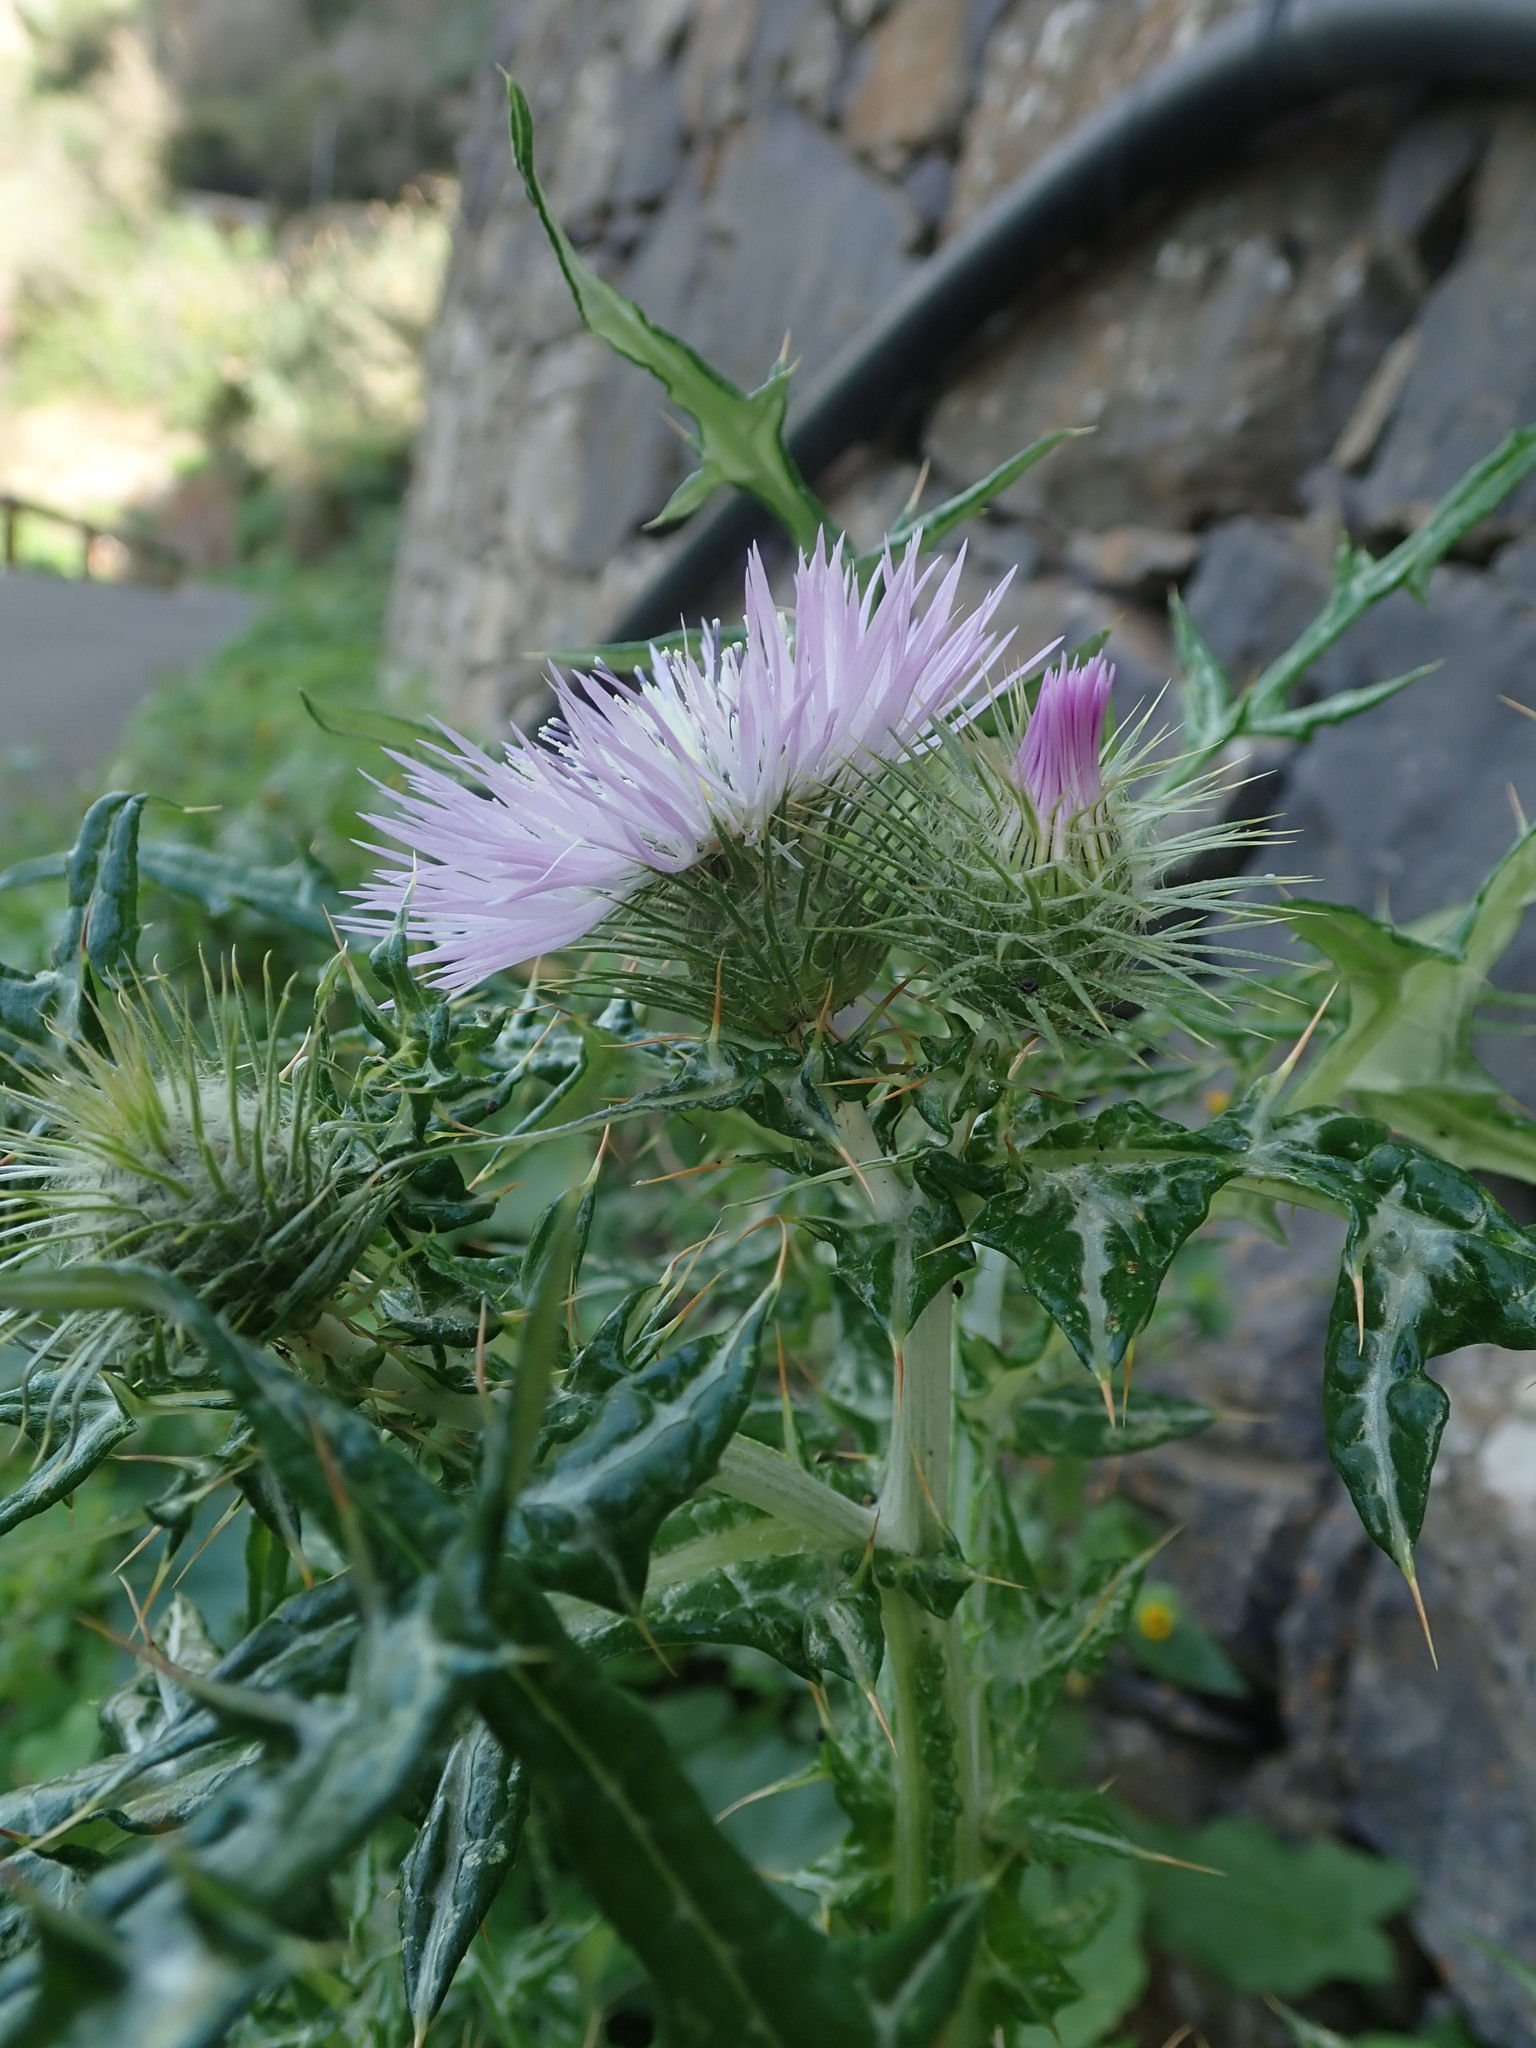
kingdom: Plantae
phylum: Tracheophyta
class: Magnoliopsida
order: Asterales
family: Asteraceae
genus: Galactites
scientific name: Galactites tomentosa
